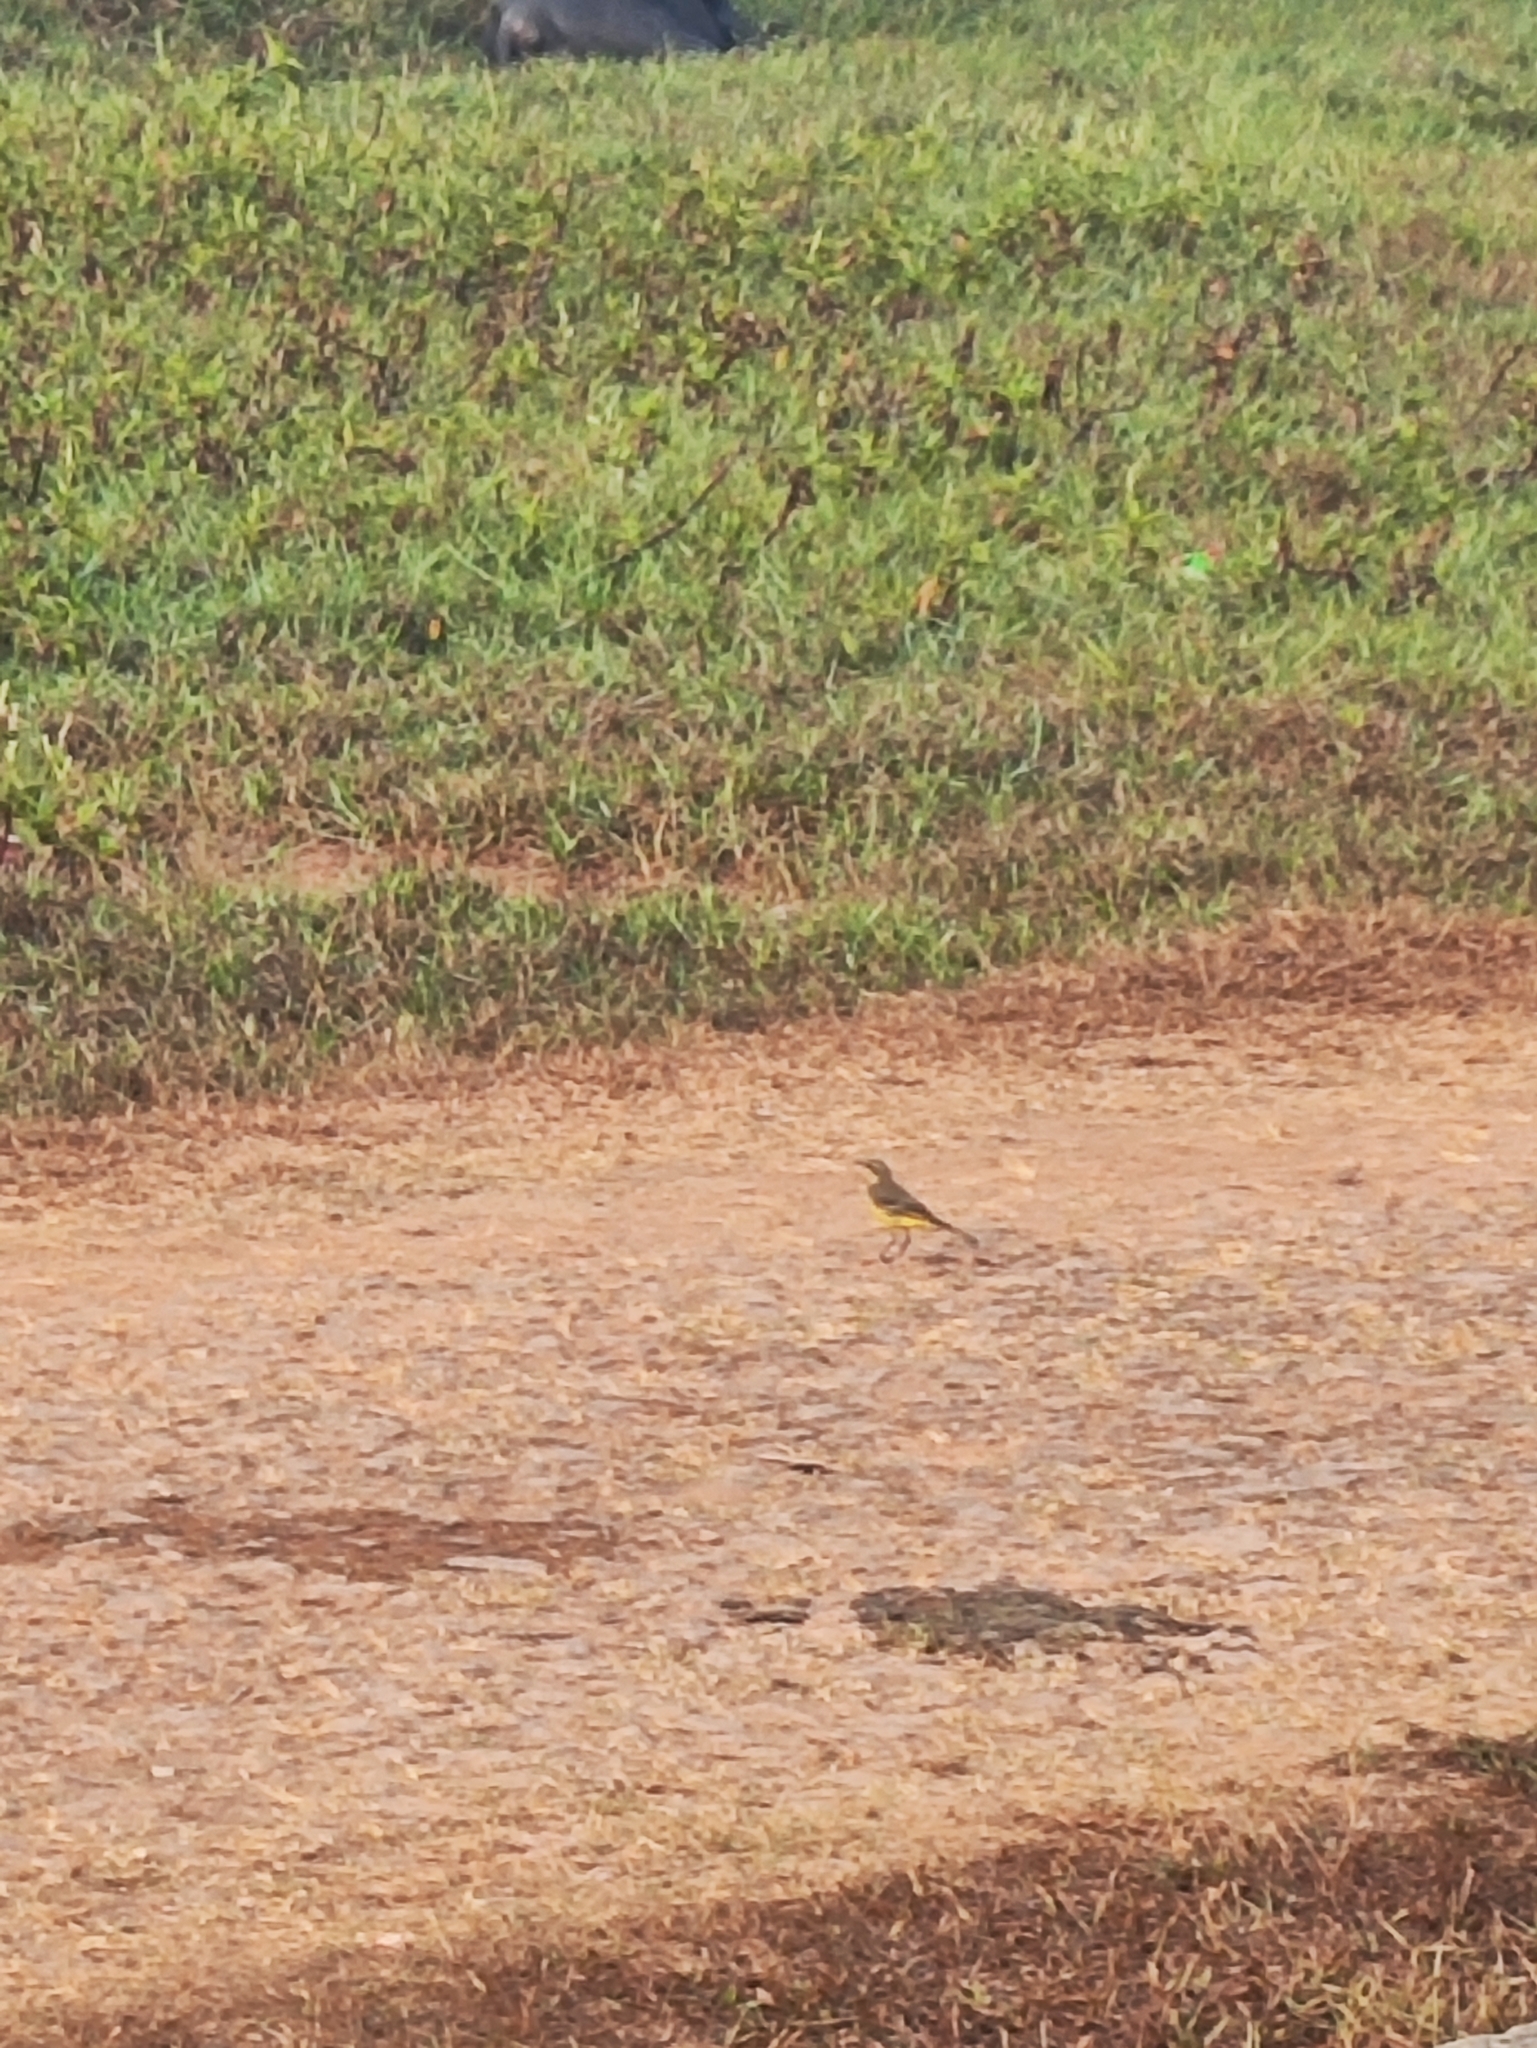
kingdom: Animalia
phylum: Chordata
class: Aves
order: Passeriformes
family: Motacillidae
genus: Motacilla
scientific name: Motacilla flava
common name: Western yellow wagtail
